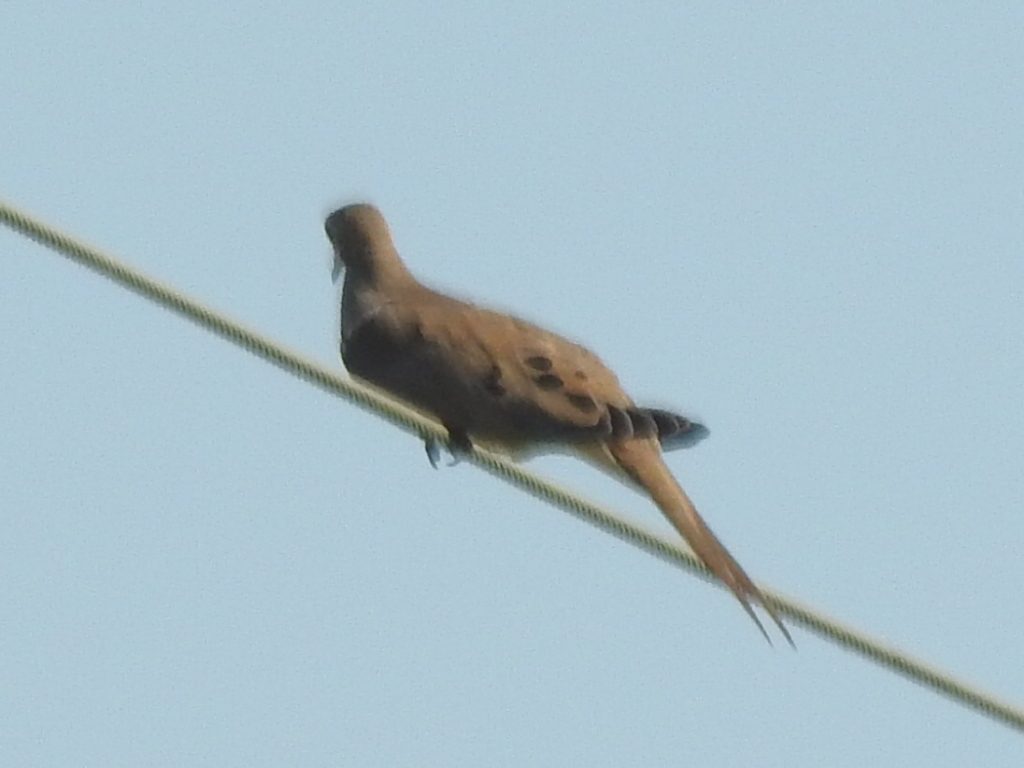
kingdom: Animalia
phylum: Chordata
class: Aves
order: Columbiformes
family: Columbidae
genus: Zenaida
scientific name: Zenaida macroura
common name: Mourning dove
